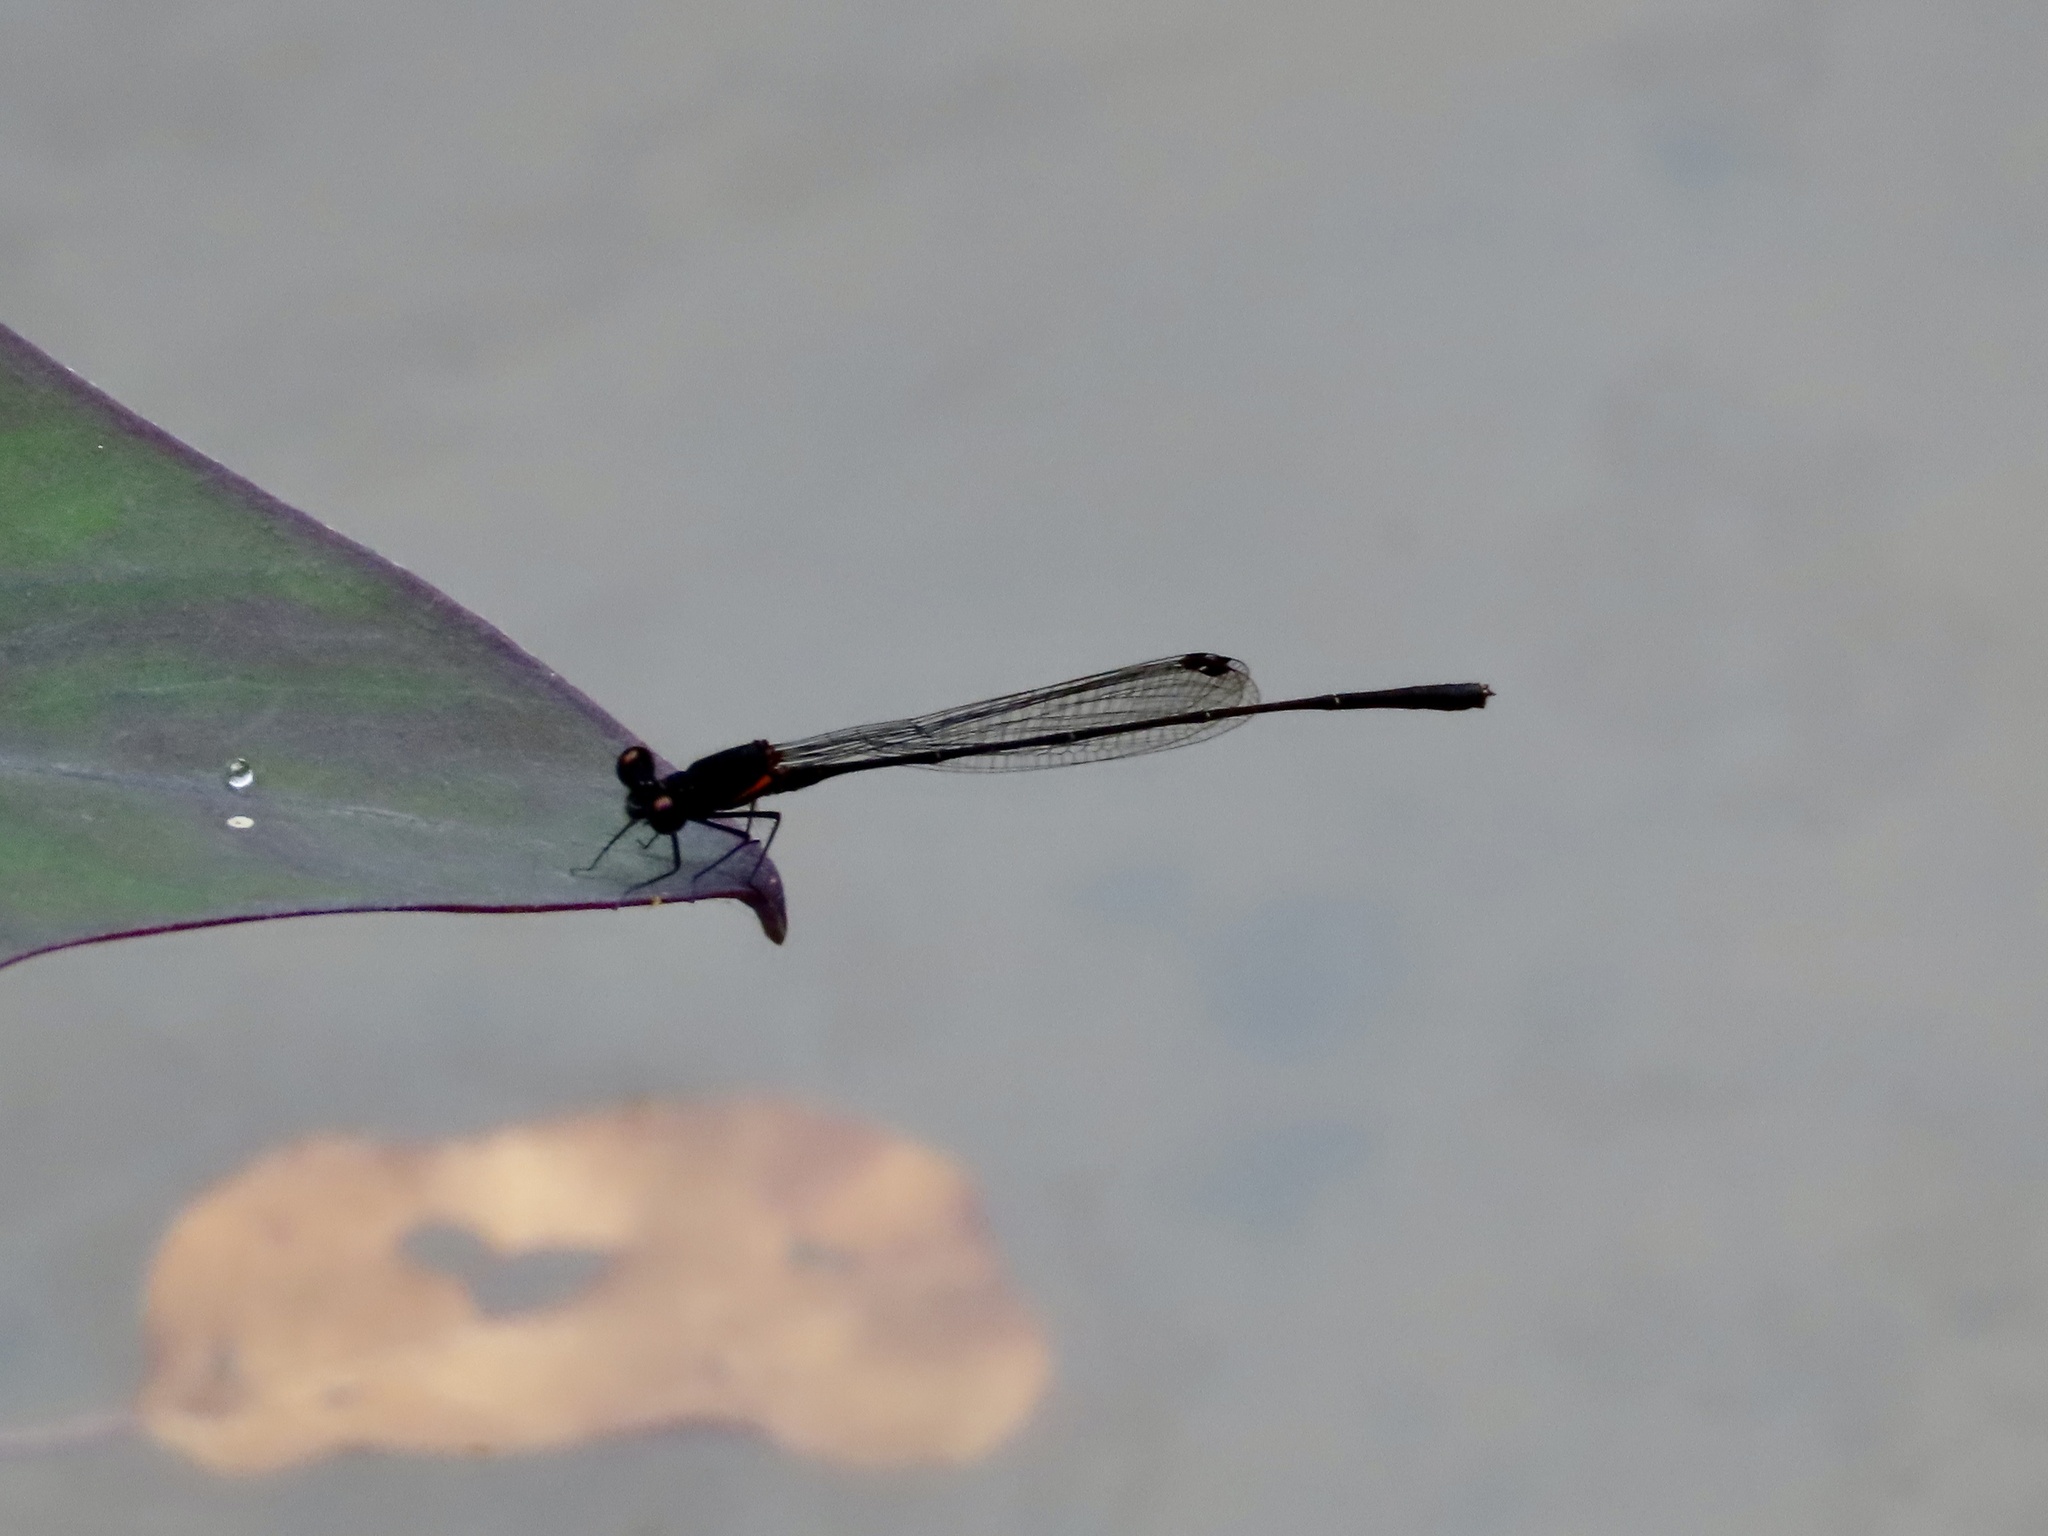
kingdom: Animalia
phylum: Arthropoda
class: Insecta
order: Odonata
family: Platycnemididae
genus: Prodasineura
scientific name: Prodasineura autumnalis
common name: Black threadtail
